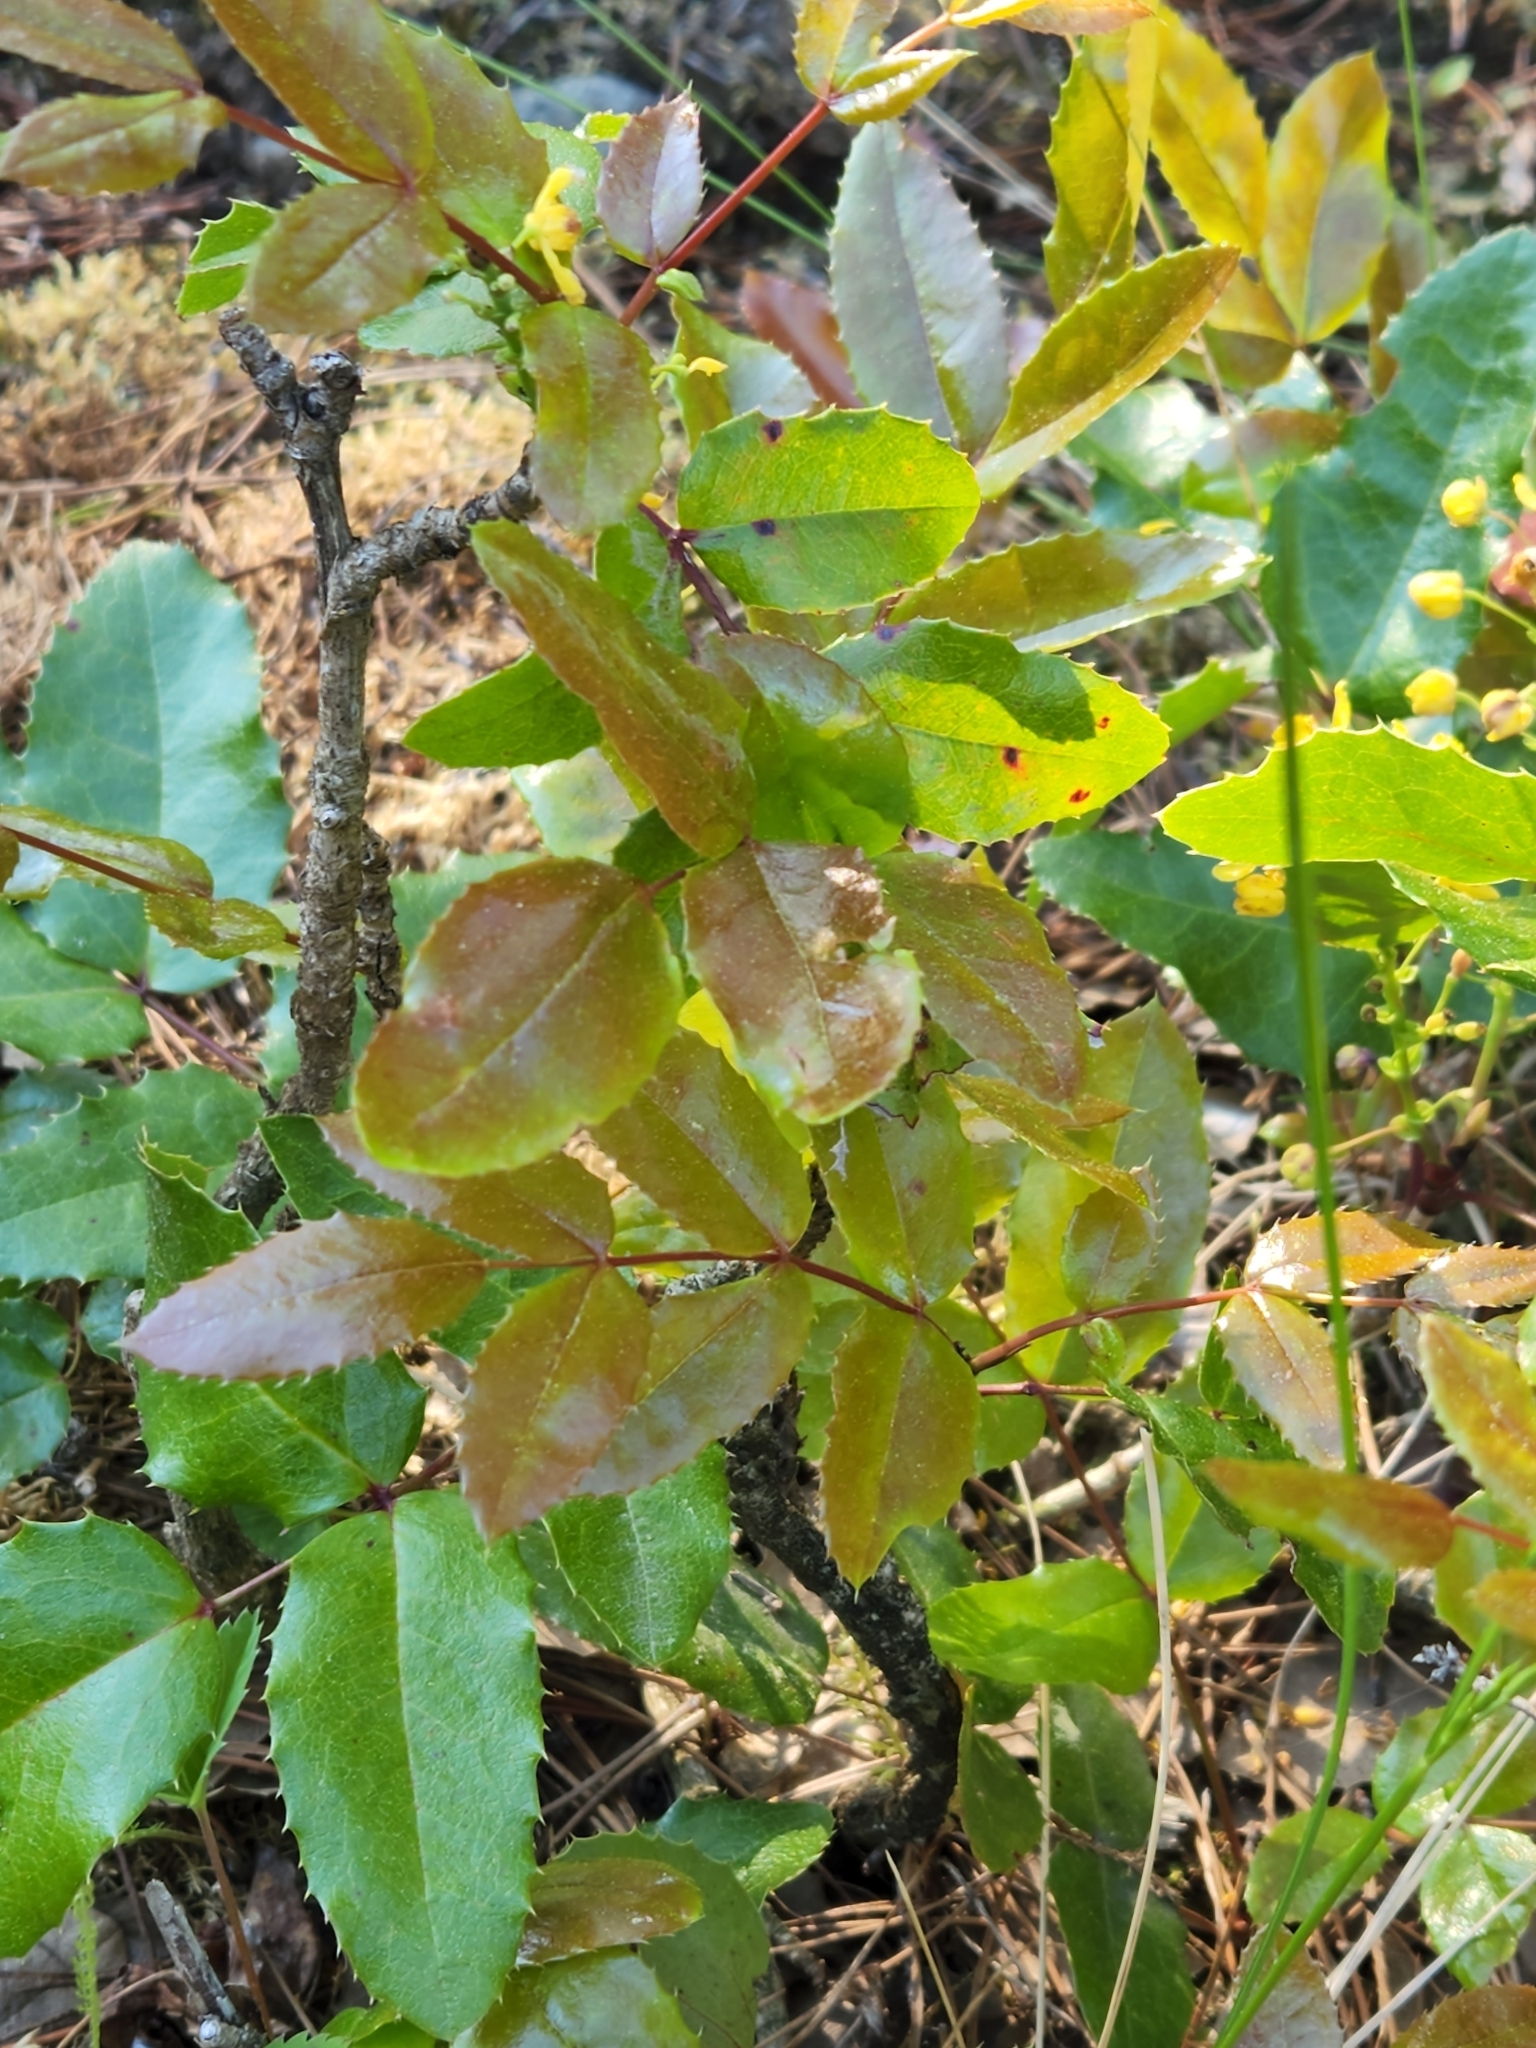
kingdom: Plantae
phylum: Tracheophyta
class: Magnoliopsida
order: Ranunculales
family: Berberidaceae
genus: Mahonia
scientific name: Mahonia aquifolium
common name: Oregon-grape
